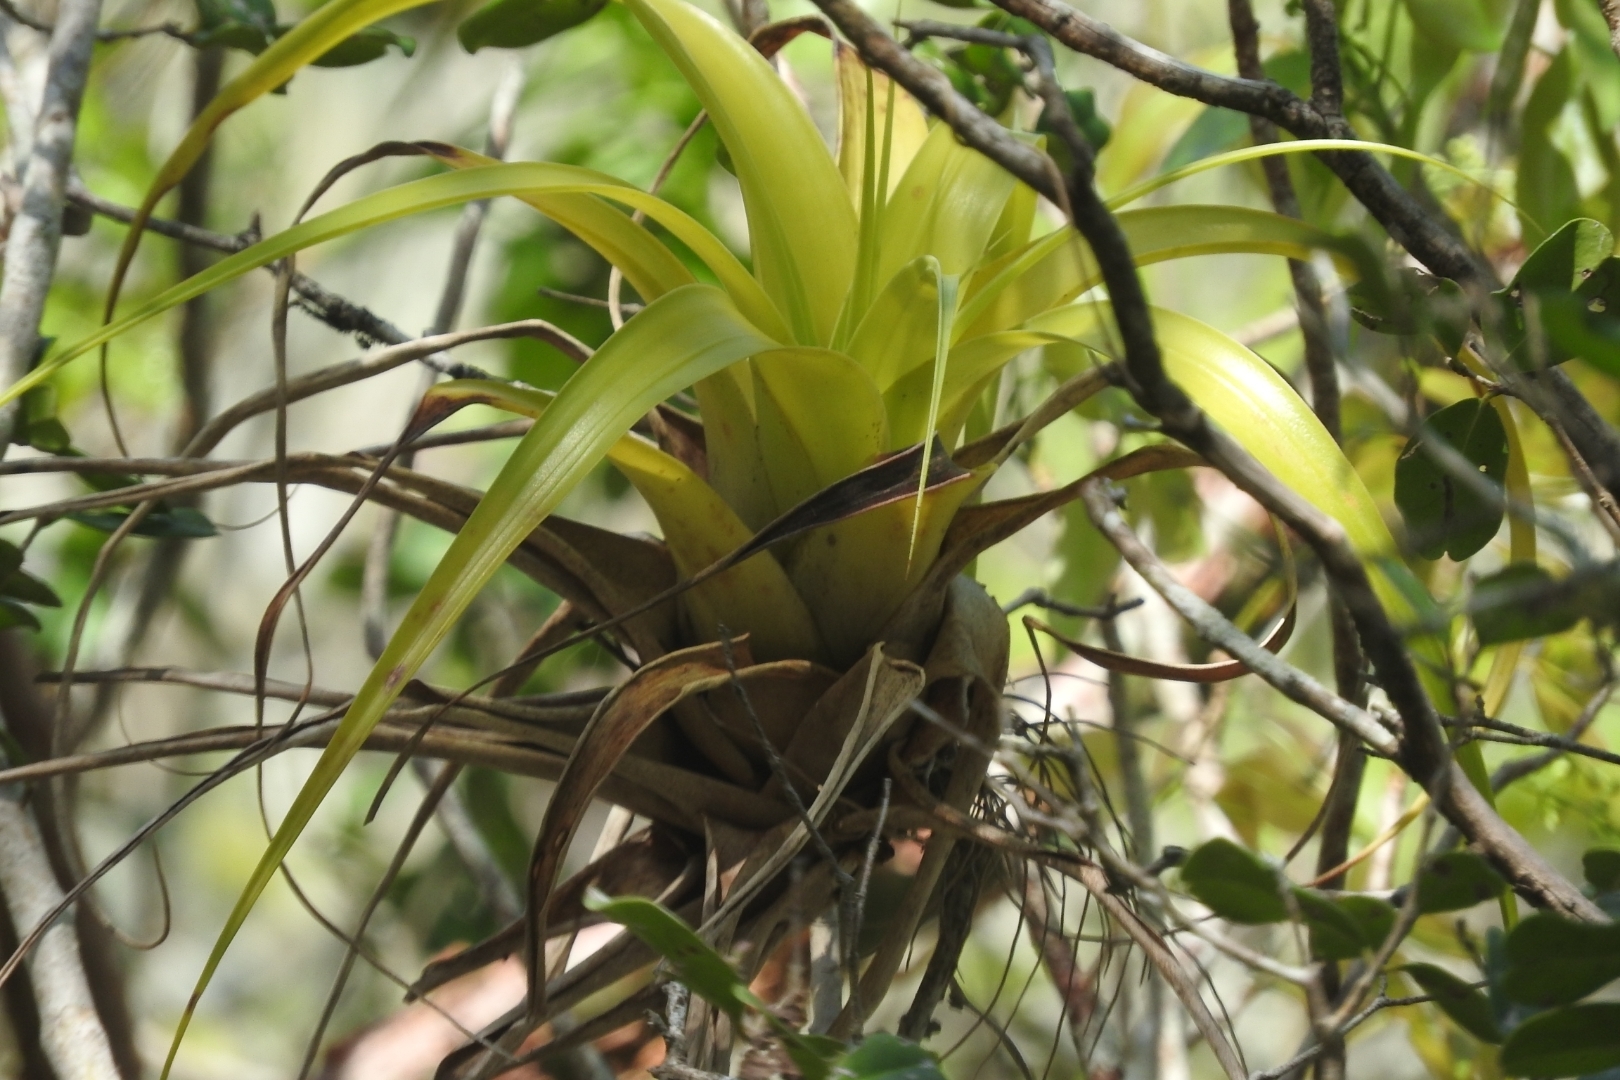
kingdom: Plantae
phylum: Tracheophyta
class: Liliopsida
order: Poales
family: Bromeliaceae
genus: Tillandsia
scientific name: Tillandsia elongata
